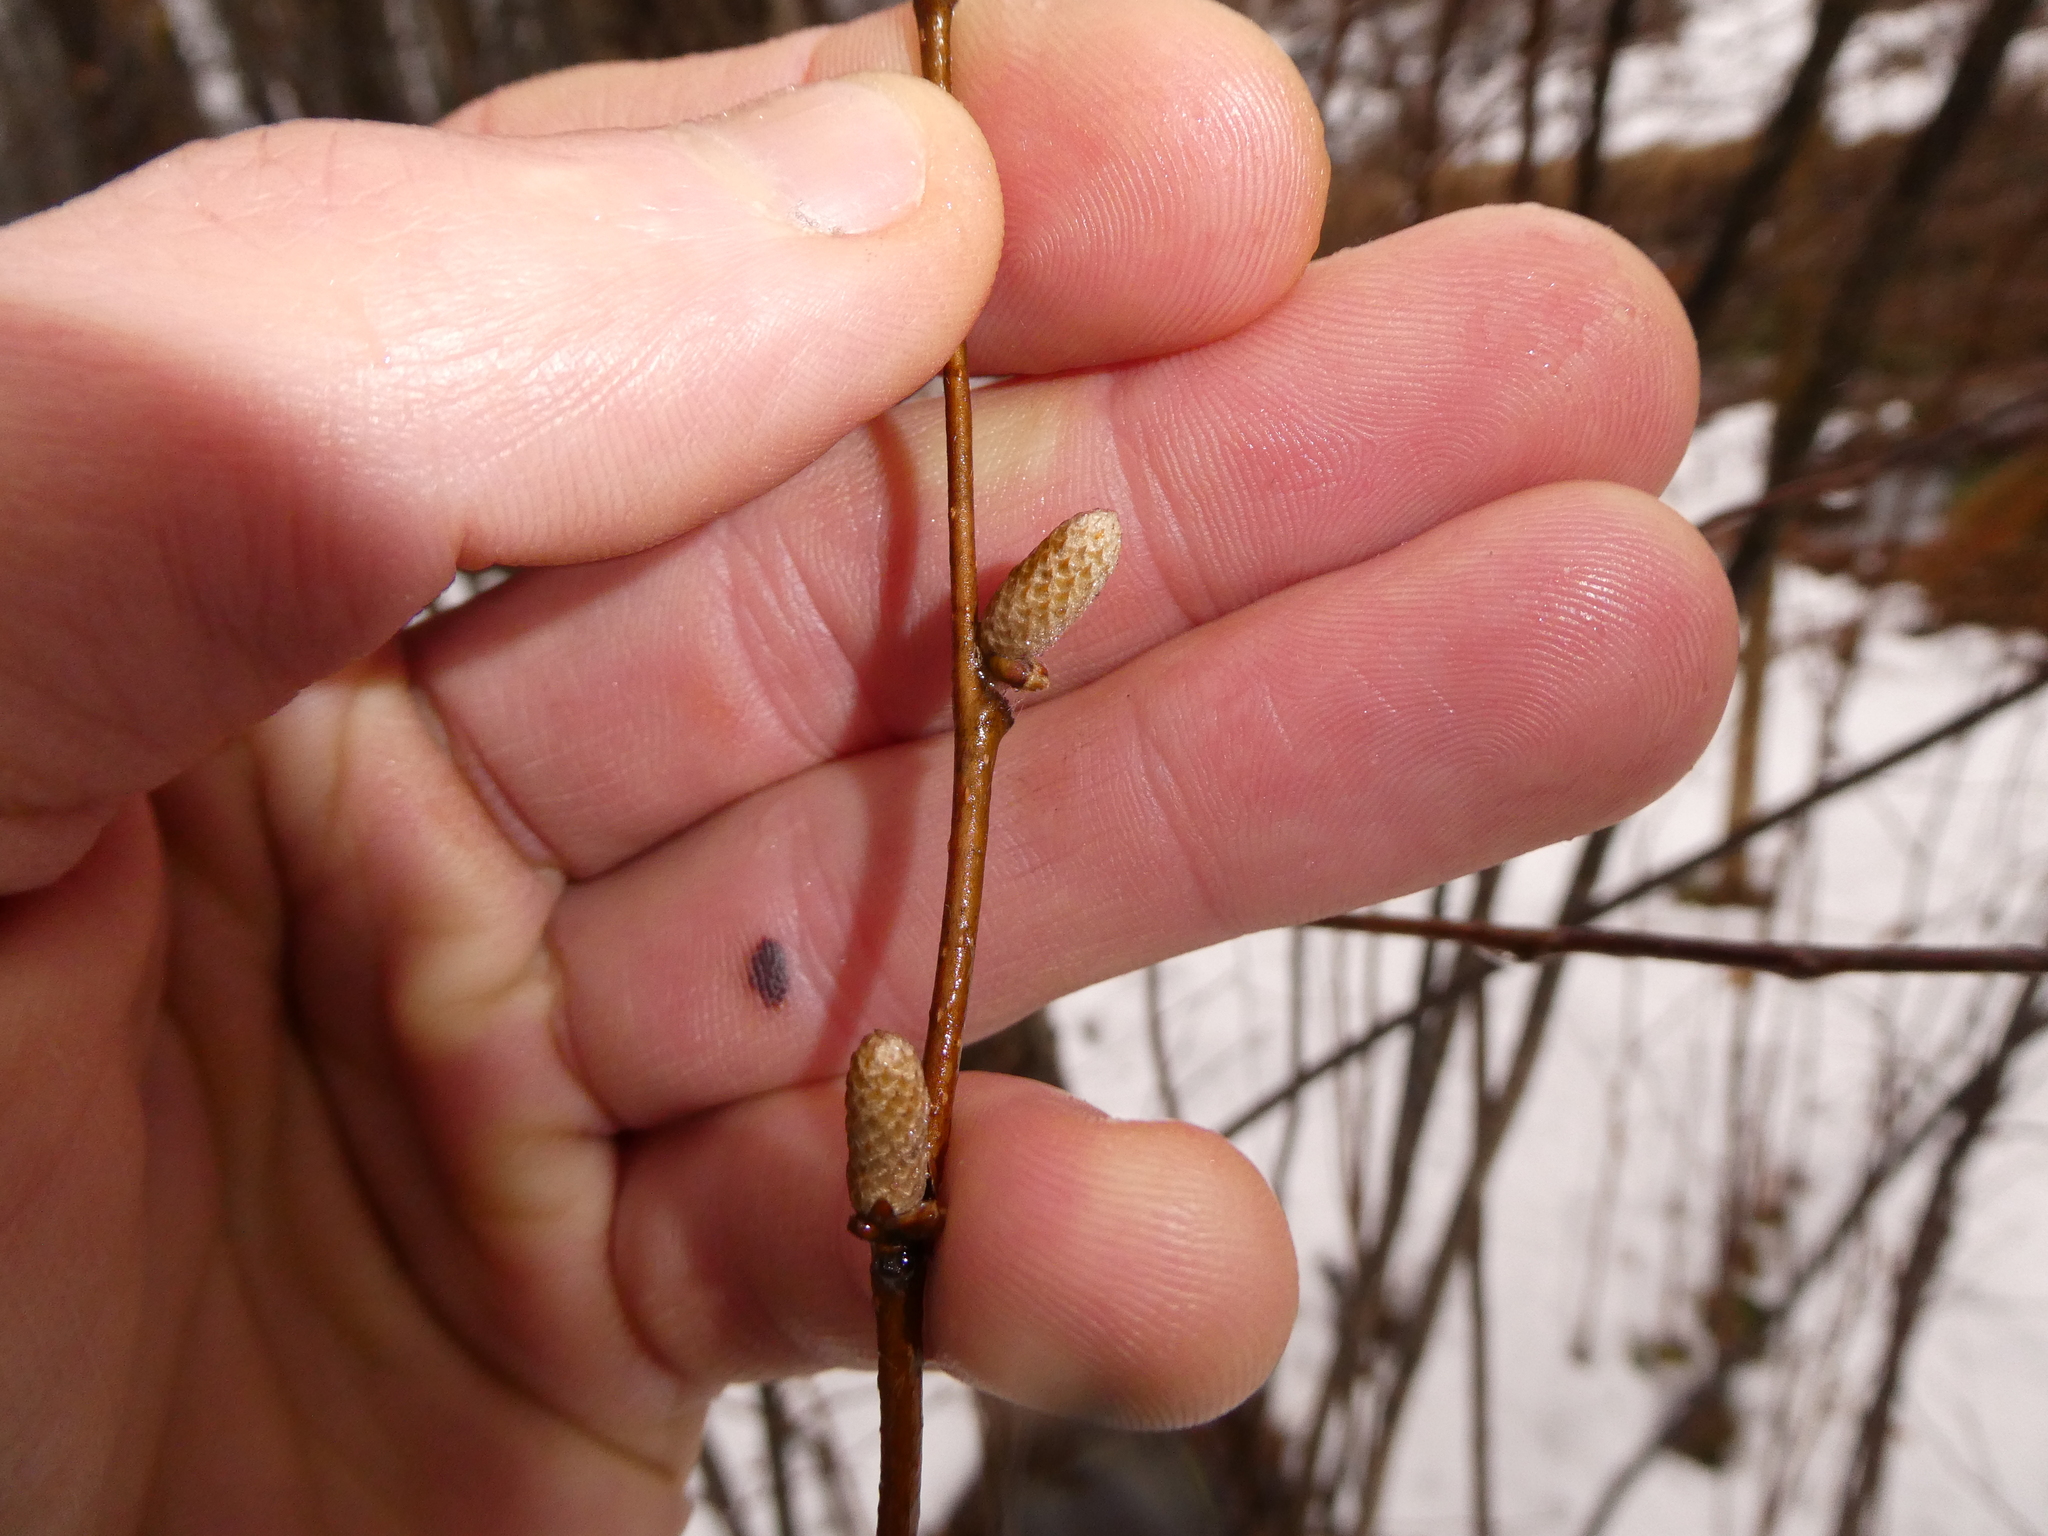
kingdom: Plantae
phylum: Tracheophyta
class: Magnoliopsida
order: Fagales
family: Betulaceae
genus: Corylus
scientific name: Corylus cornuta
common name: Beaked hazel
